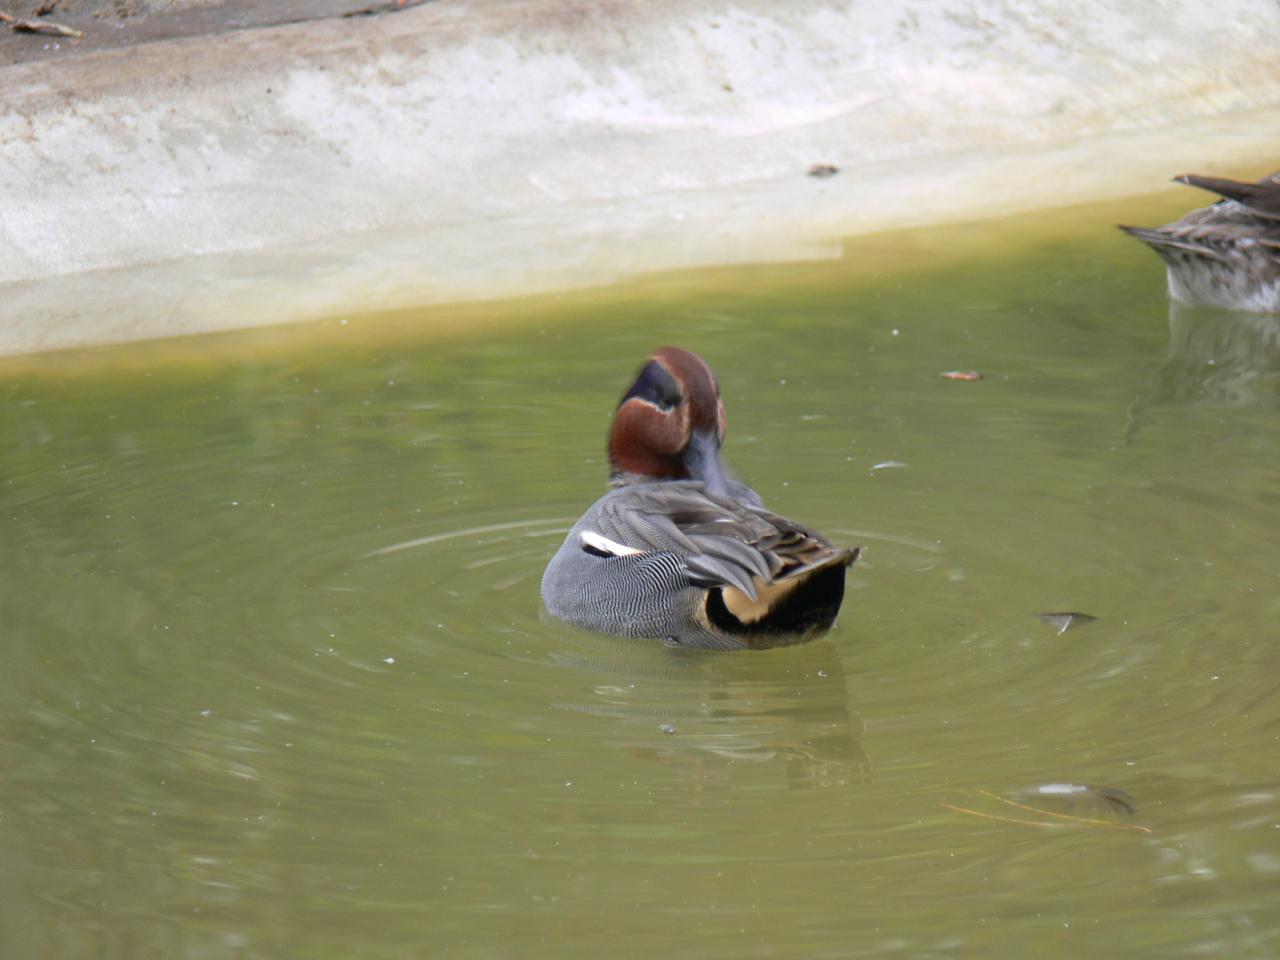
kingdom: Animalia
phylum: Chordata
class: Aves
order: Anseriformes
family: Anatidae
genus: Anas
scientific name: Anas crecca
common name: Eurasian teal
